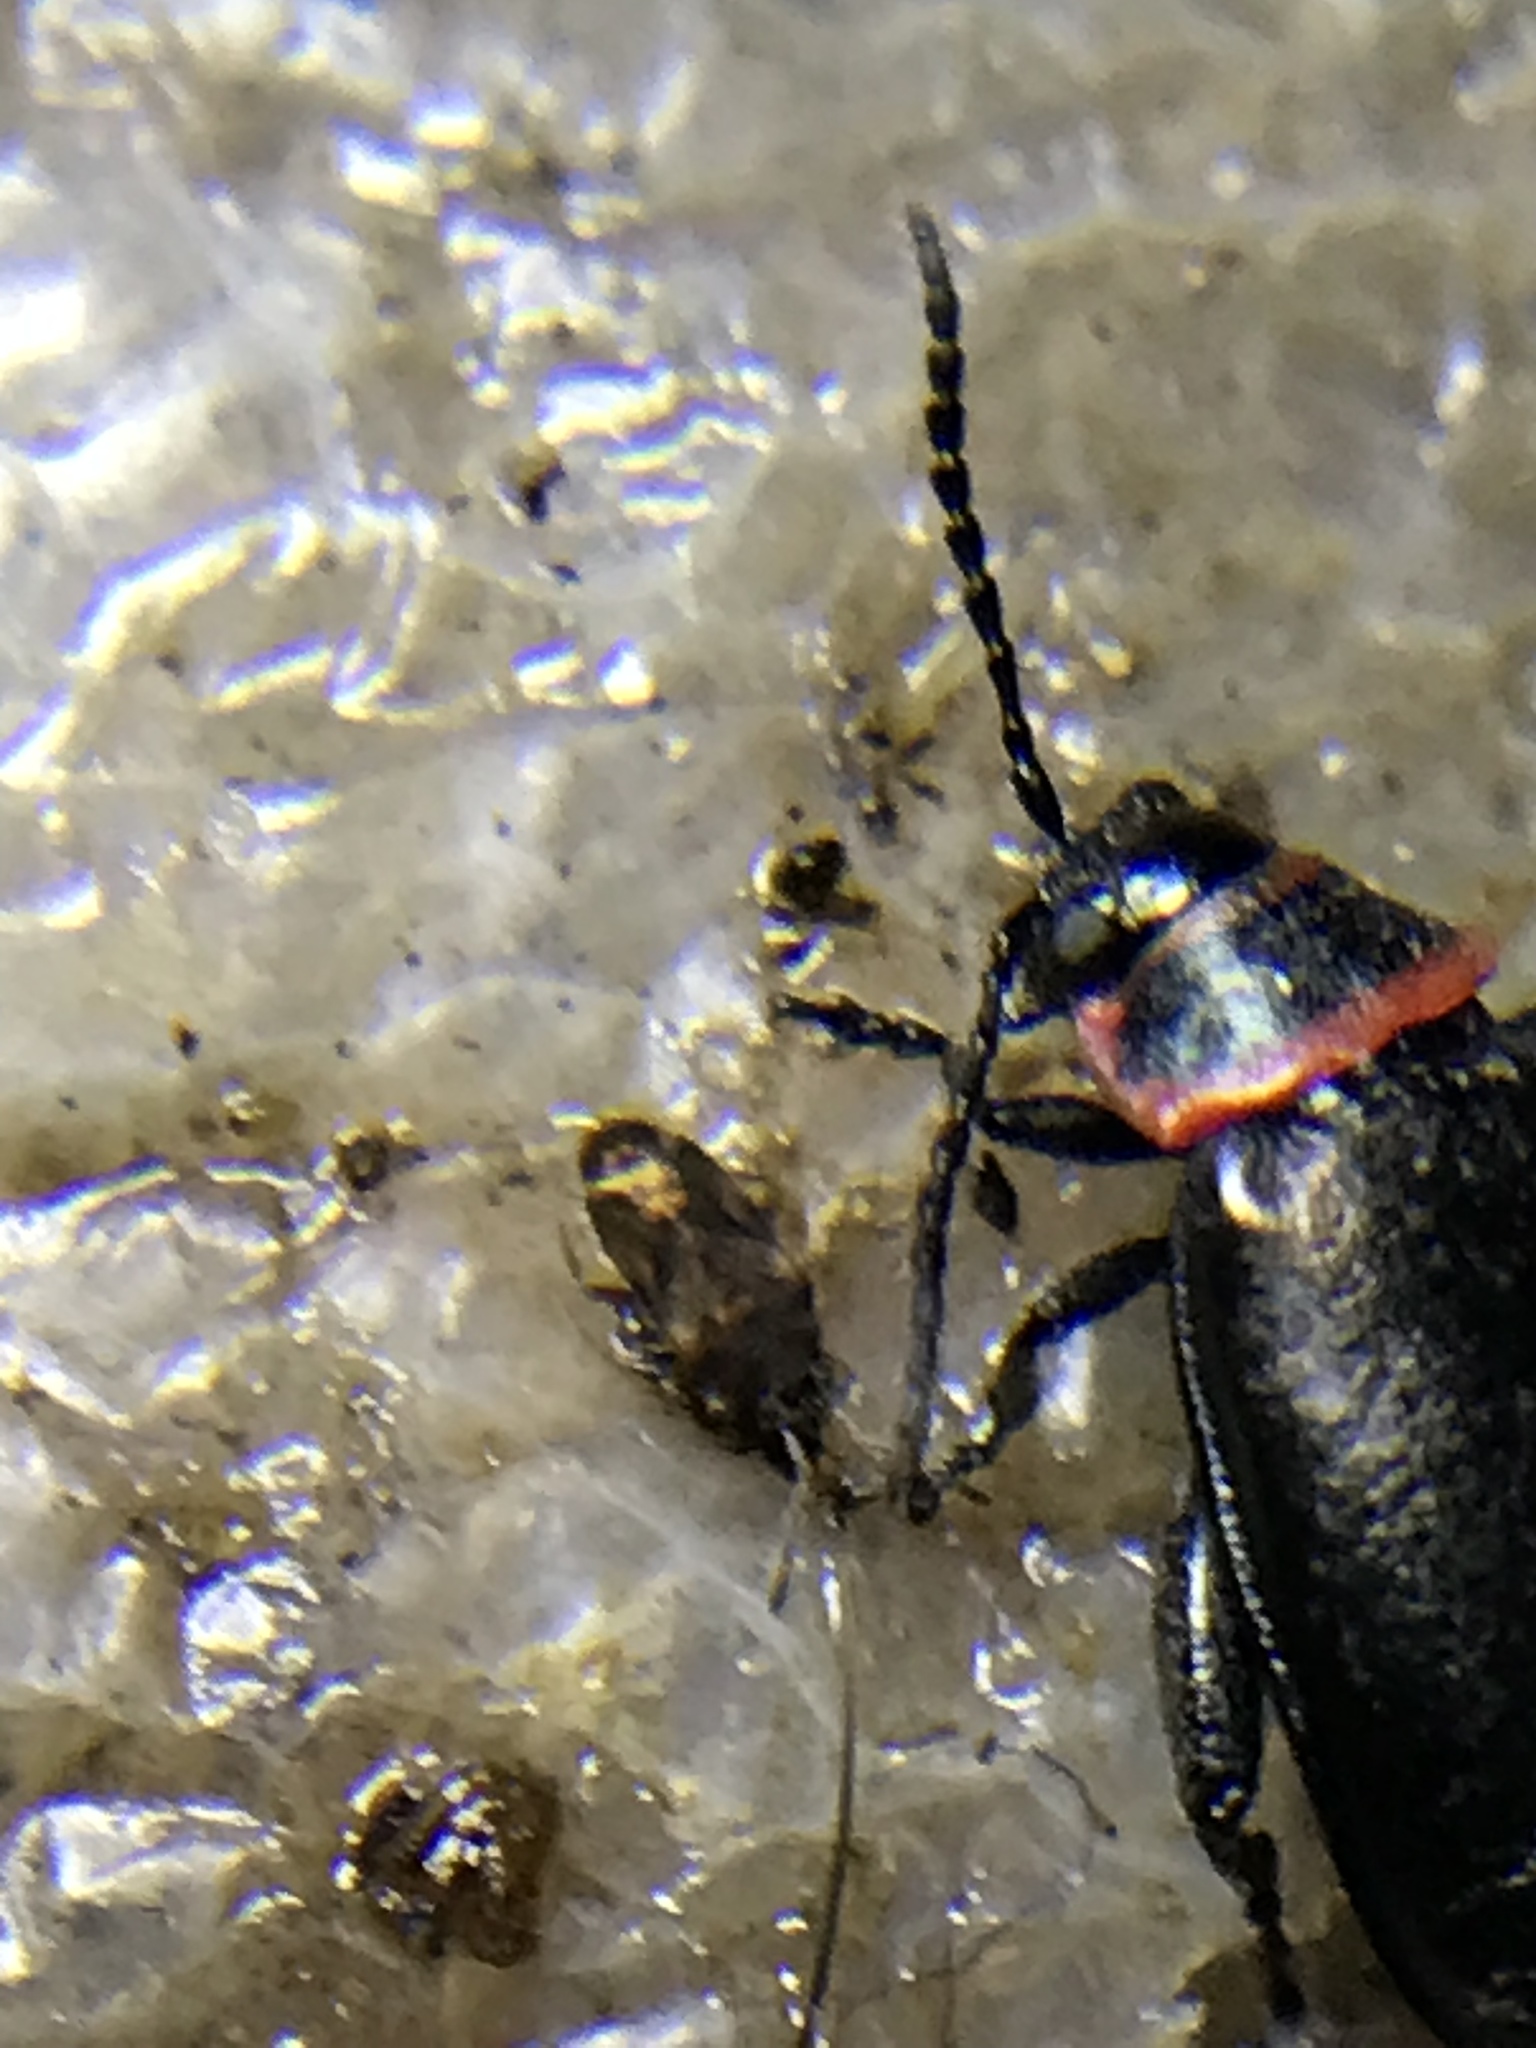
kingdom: Animalia
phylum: Arthropoda
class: Insecta
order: Coleoptera
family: Chrysomelidae
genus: Kuschelina
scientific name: Kuschelina vians
